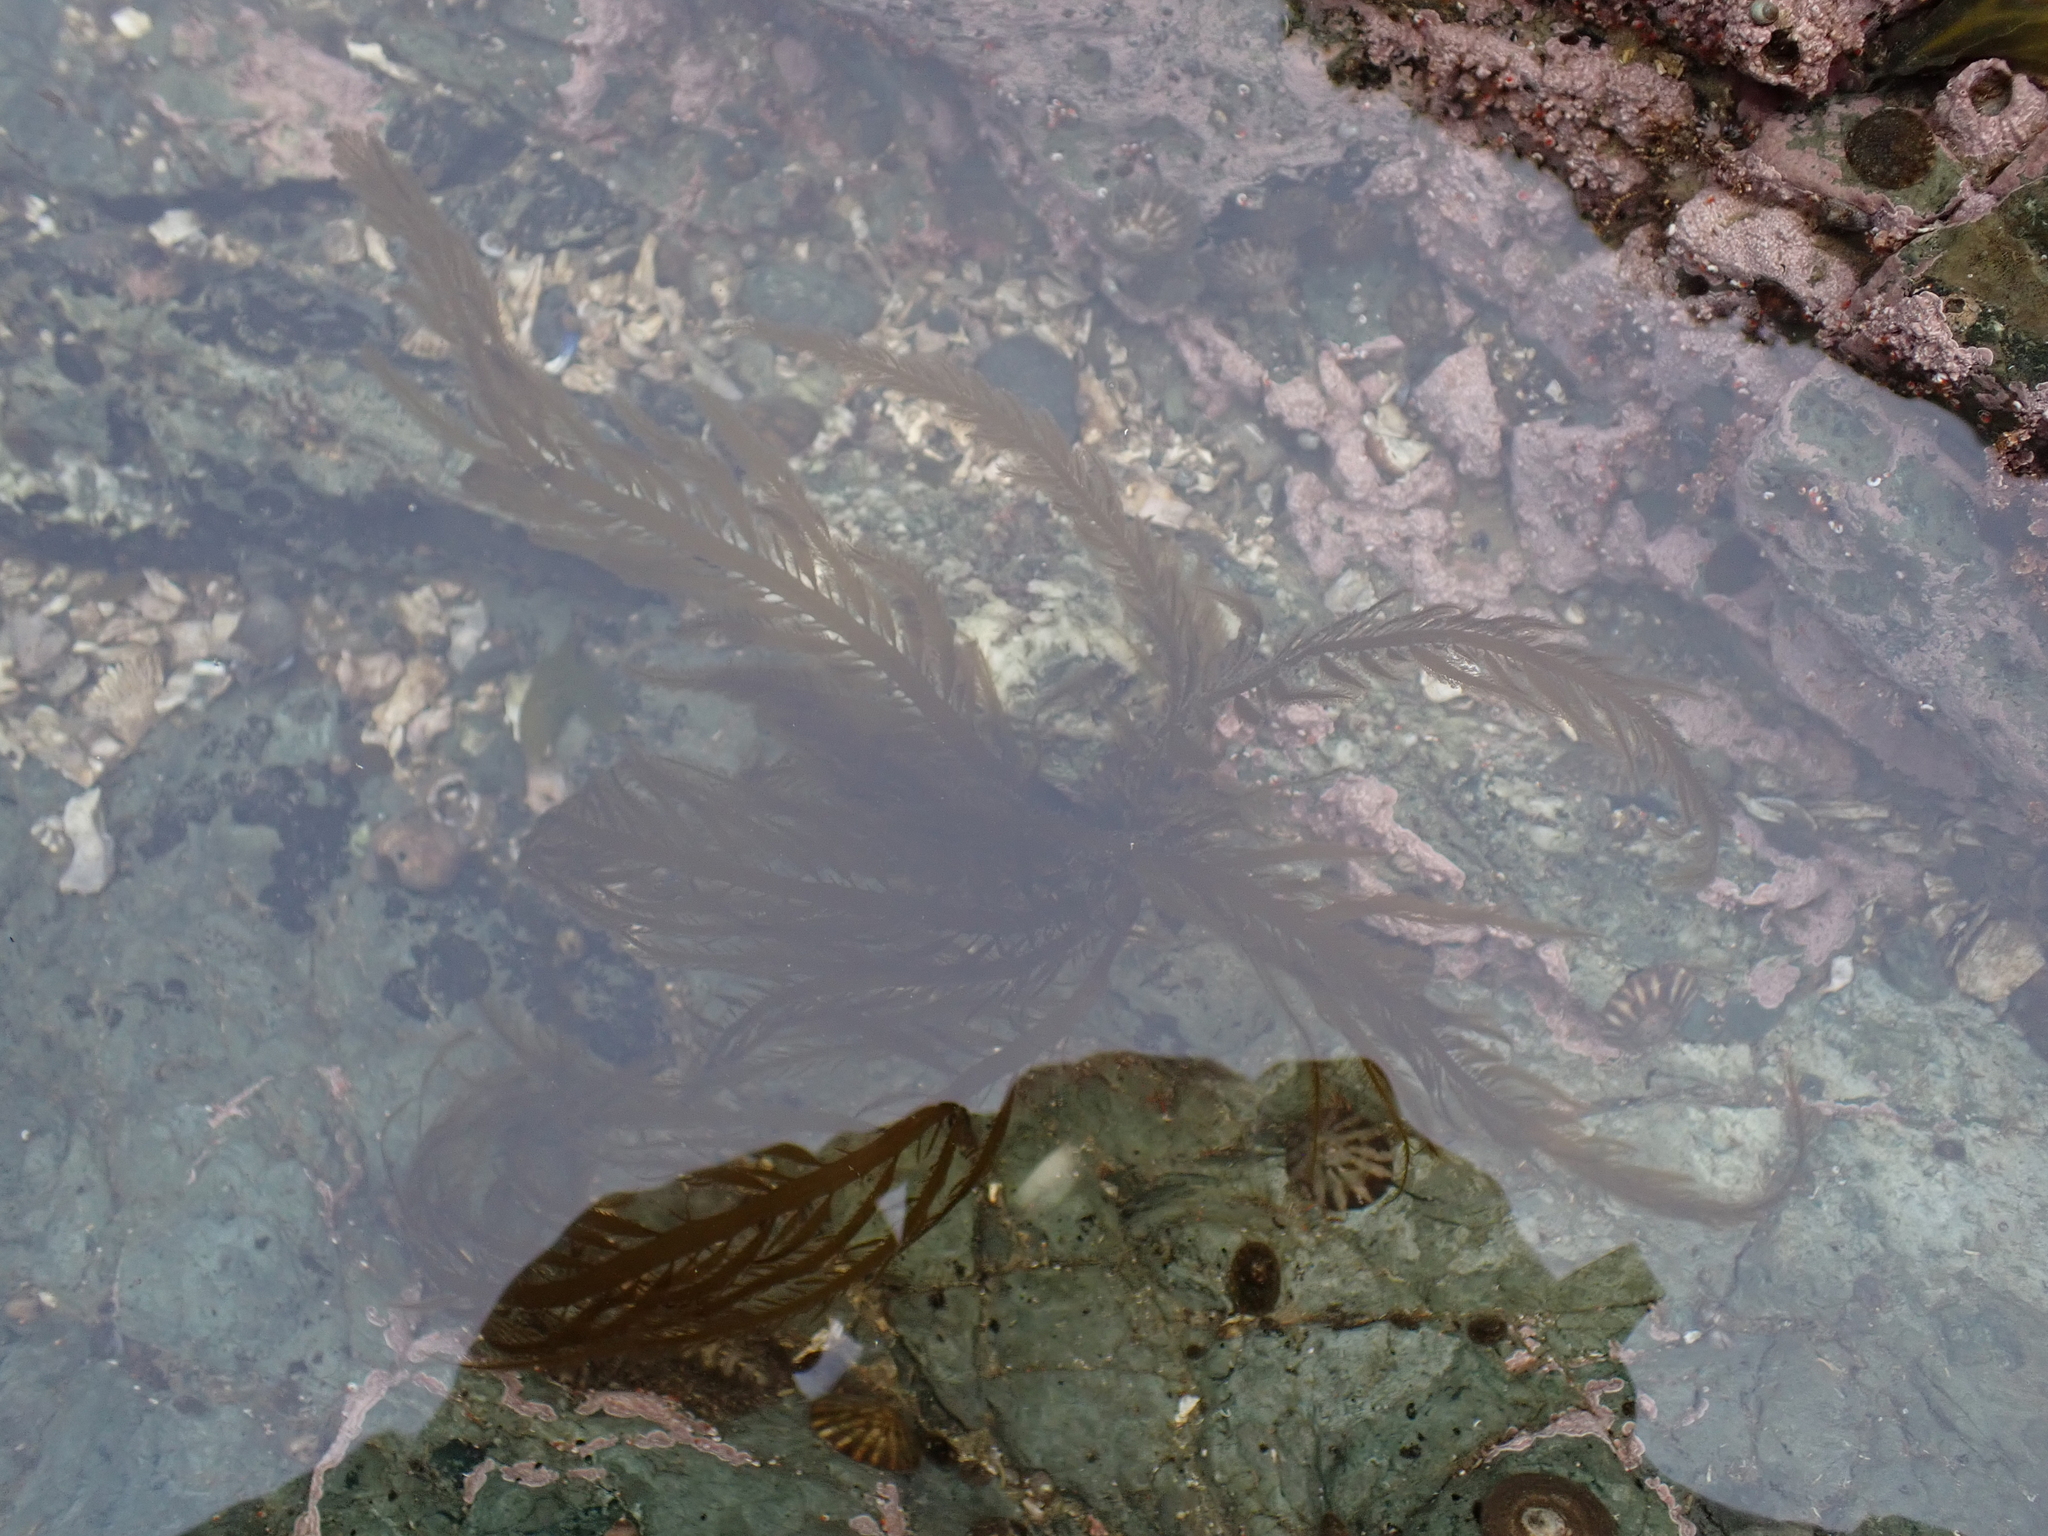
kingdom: Chromista
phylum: Ochrophyta
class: Phaeophyceae
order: Desmarestiales
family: Desmarestiaceae
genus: Desmarestia
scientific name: Desmarestia ligulata
